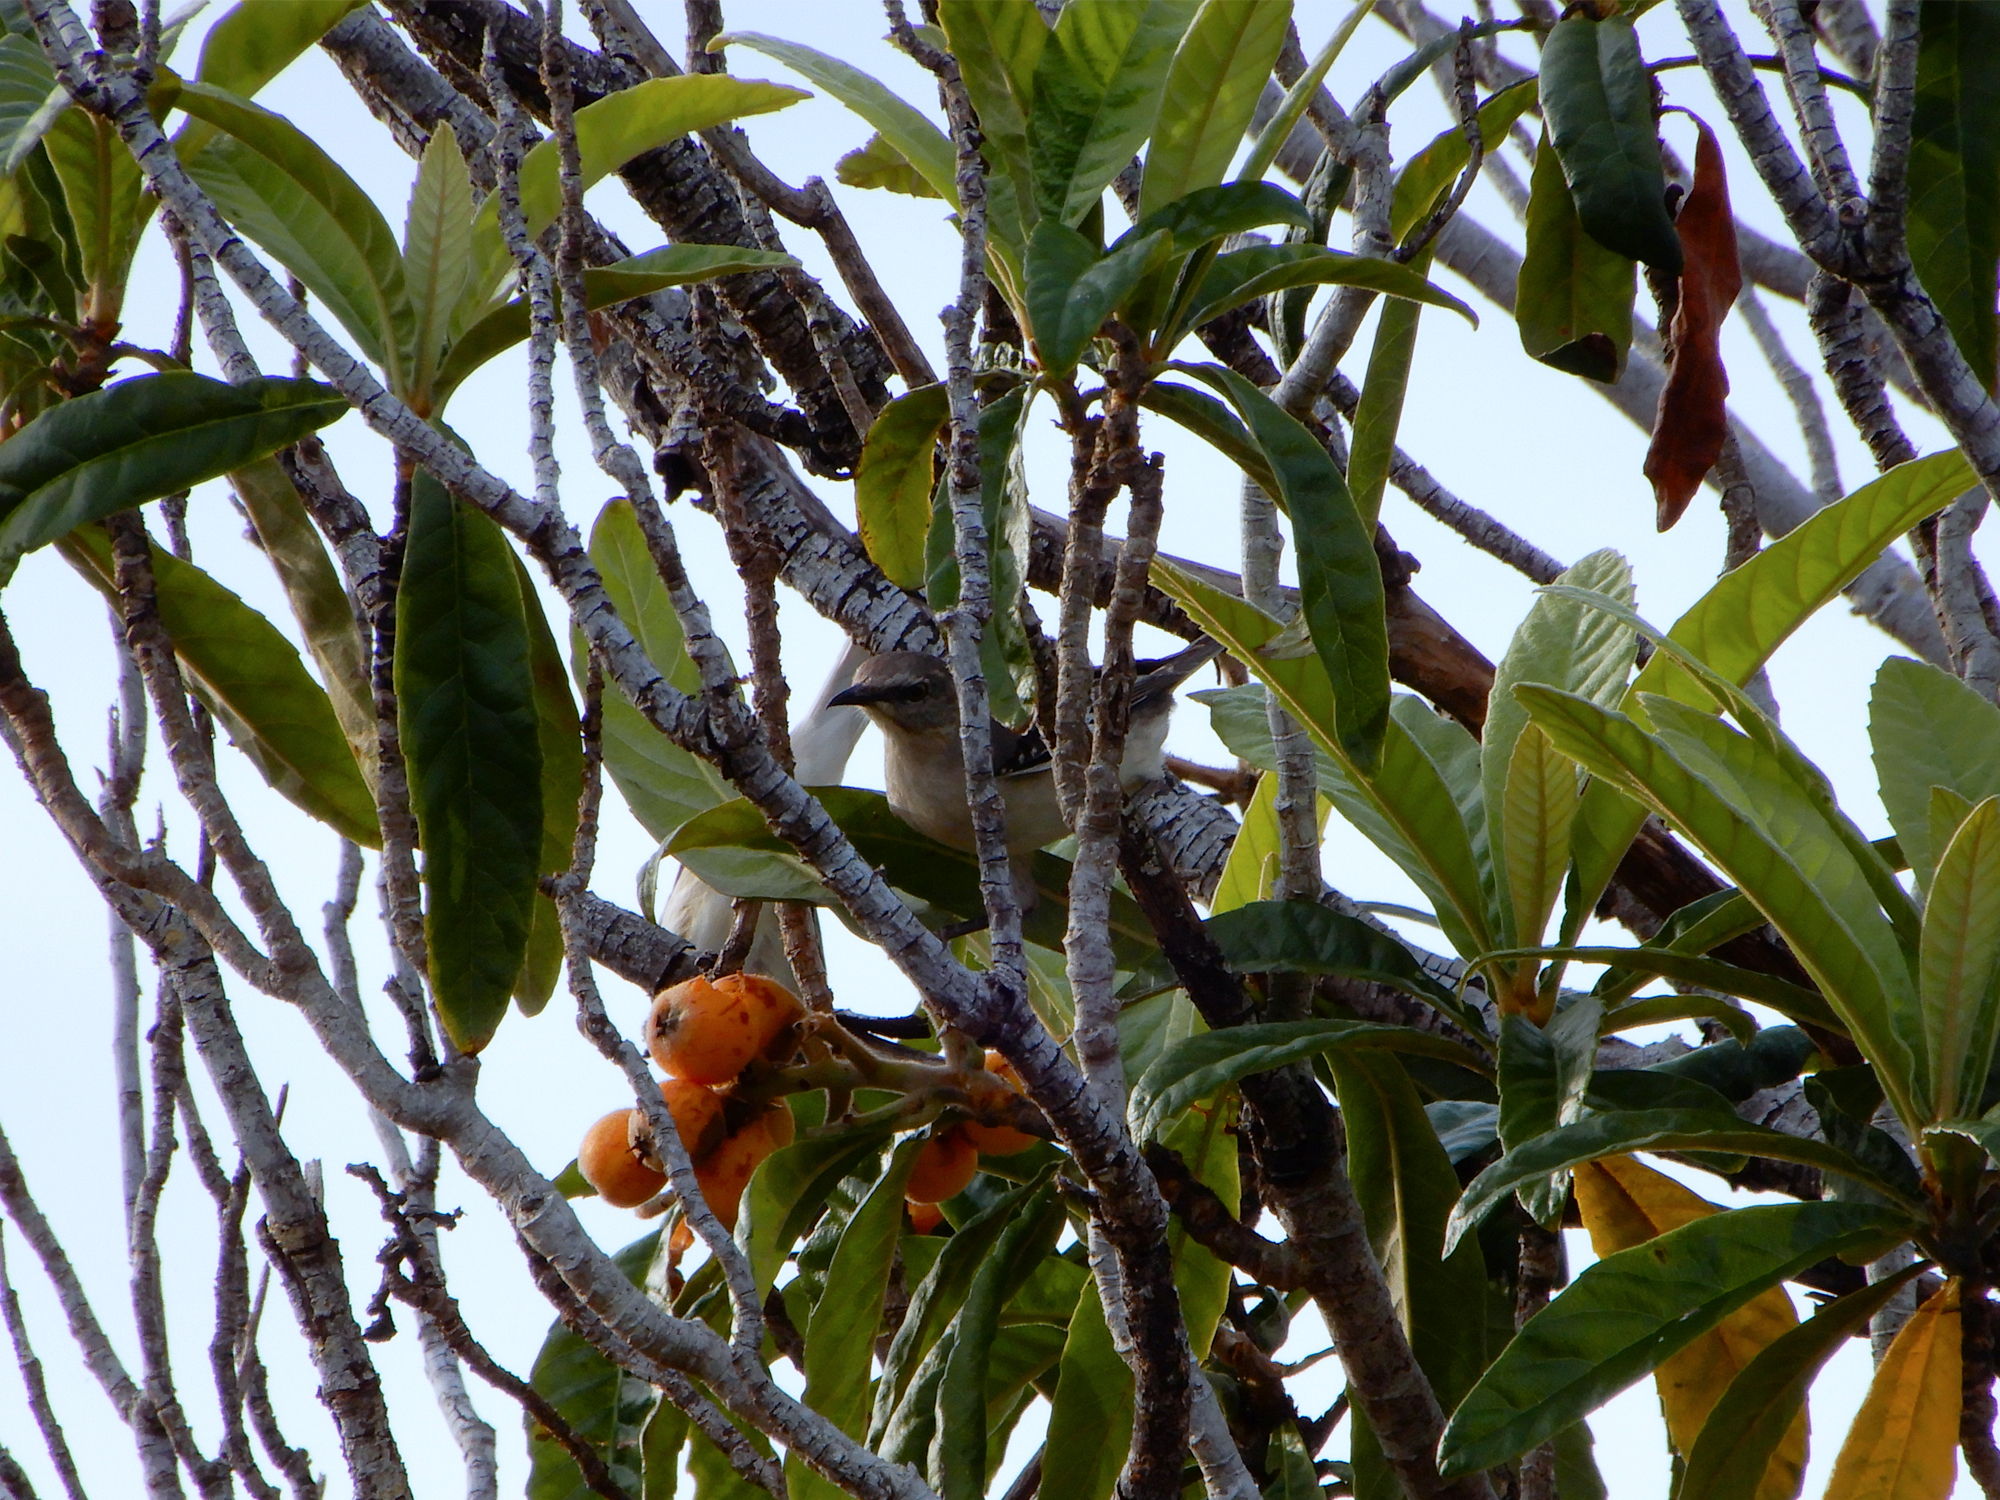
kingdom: Animalia
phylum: Chordata
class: Aves
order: Passeriformes
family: Mimidae
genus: Mimus
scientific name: Mimus polyglottos
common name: Northern mockingbird
